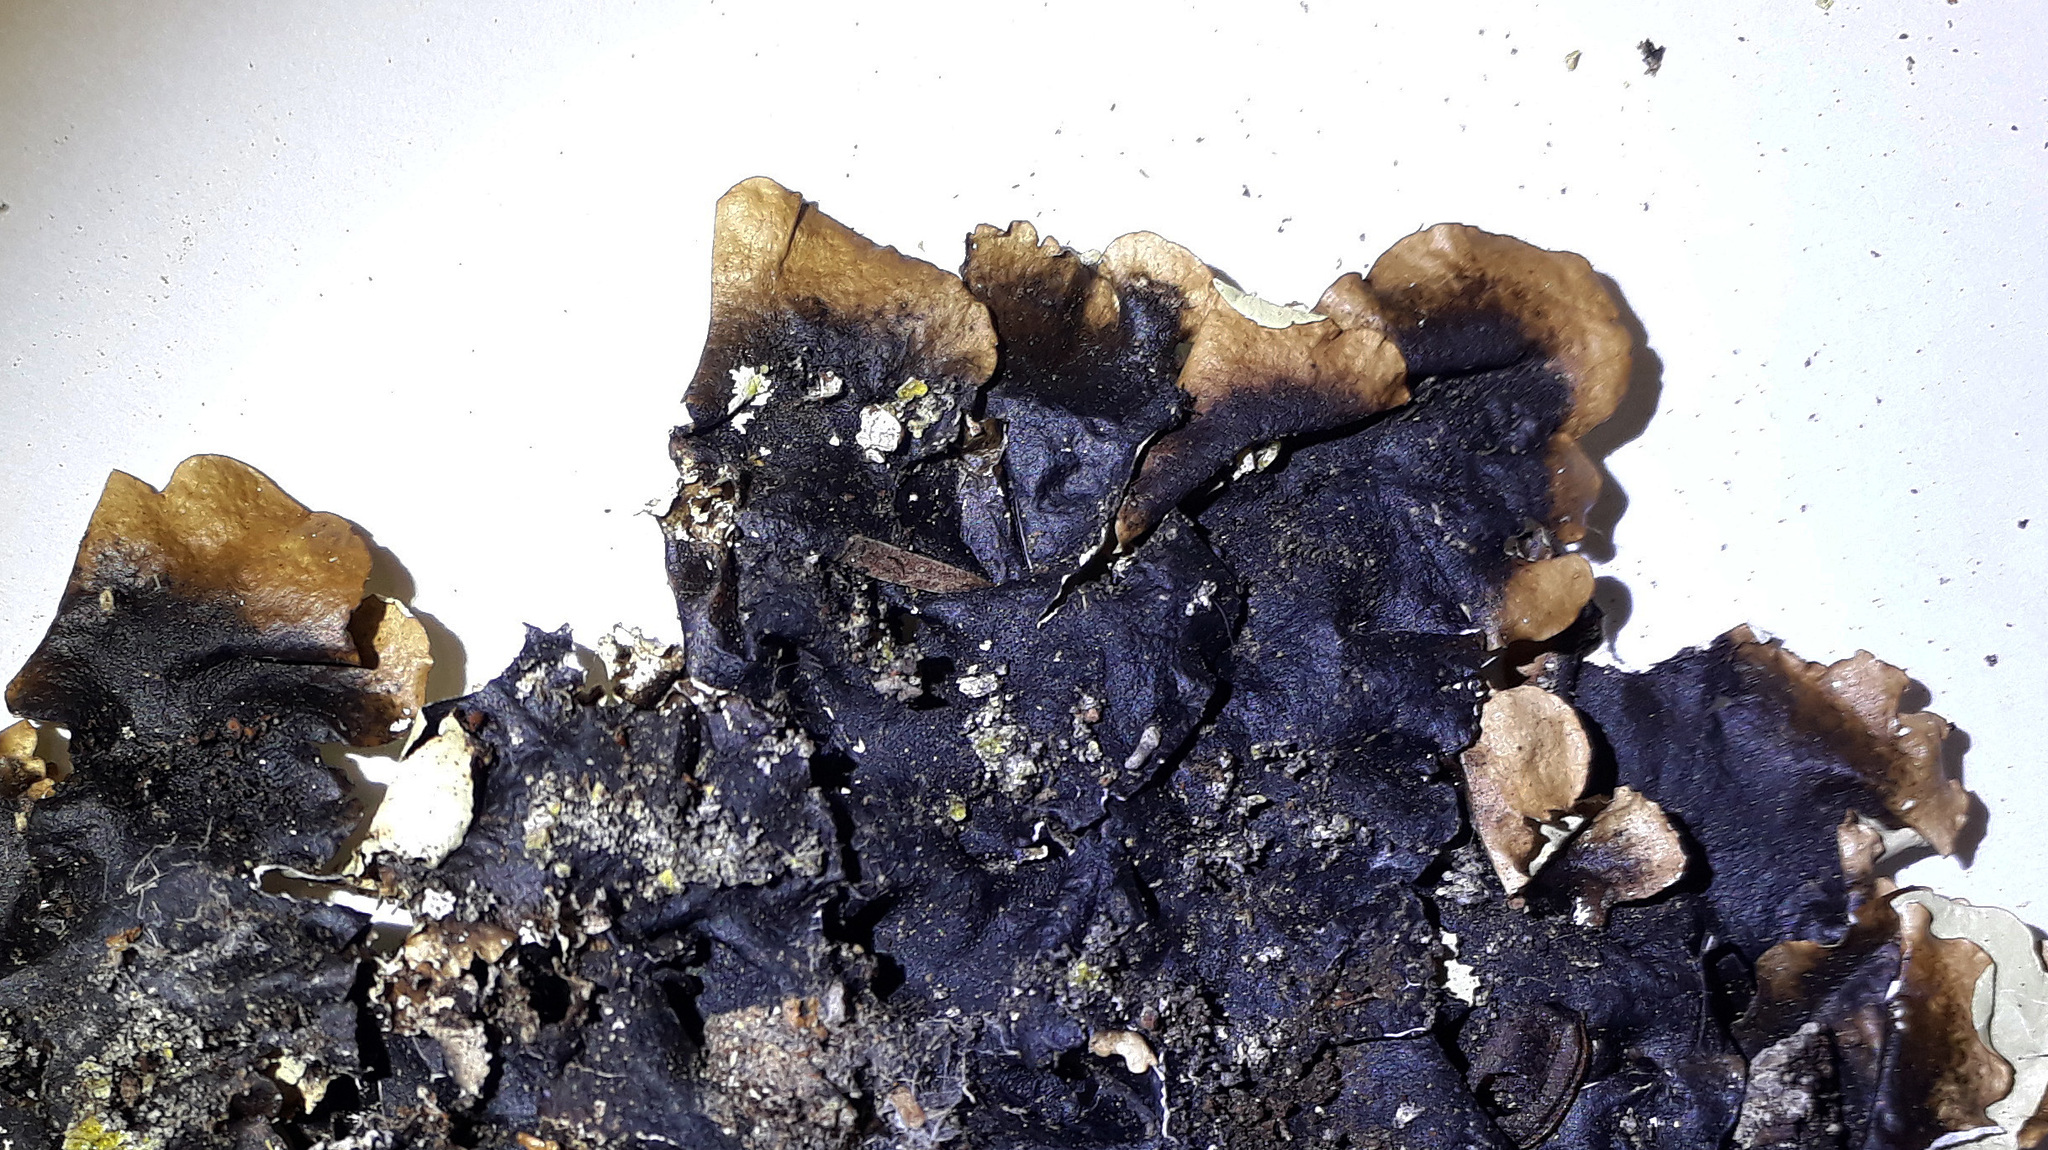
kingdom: Fungi
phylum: Ascomycota
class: Lecanoromycetes
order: Lecanorales
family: Parmeliaceae
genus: Parmotrema
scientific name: Parmotrema robustum
